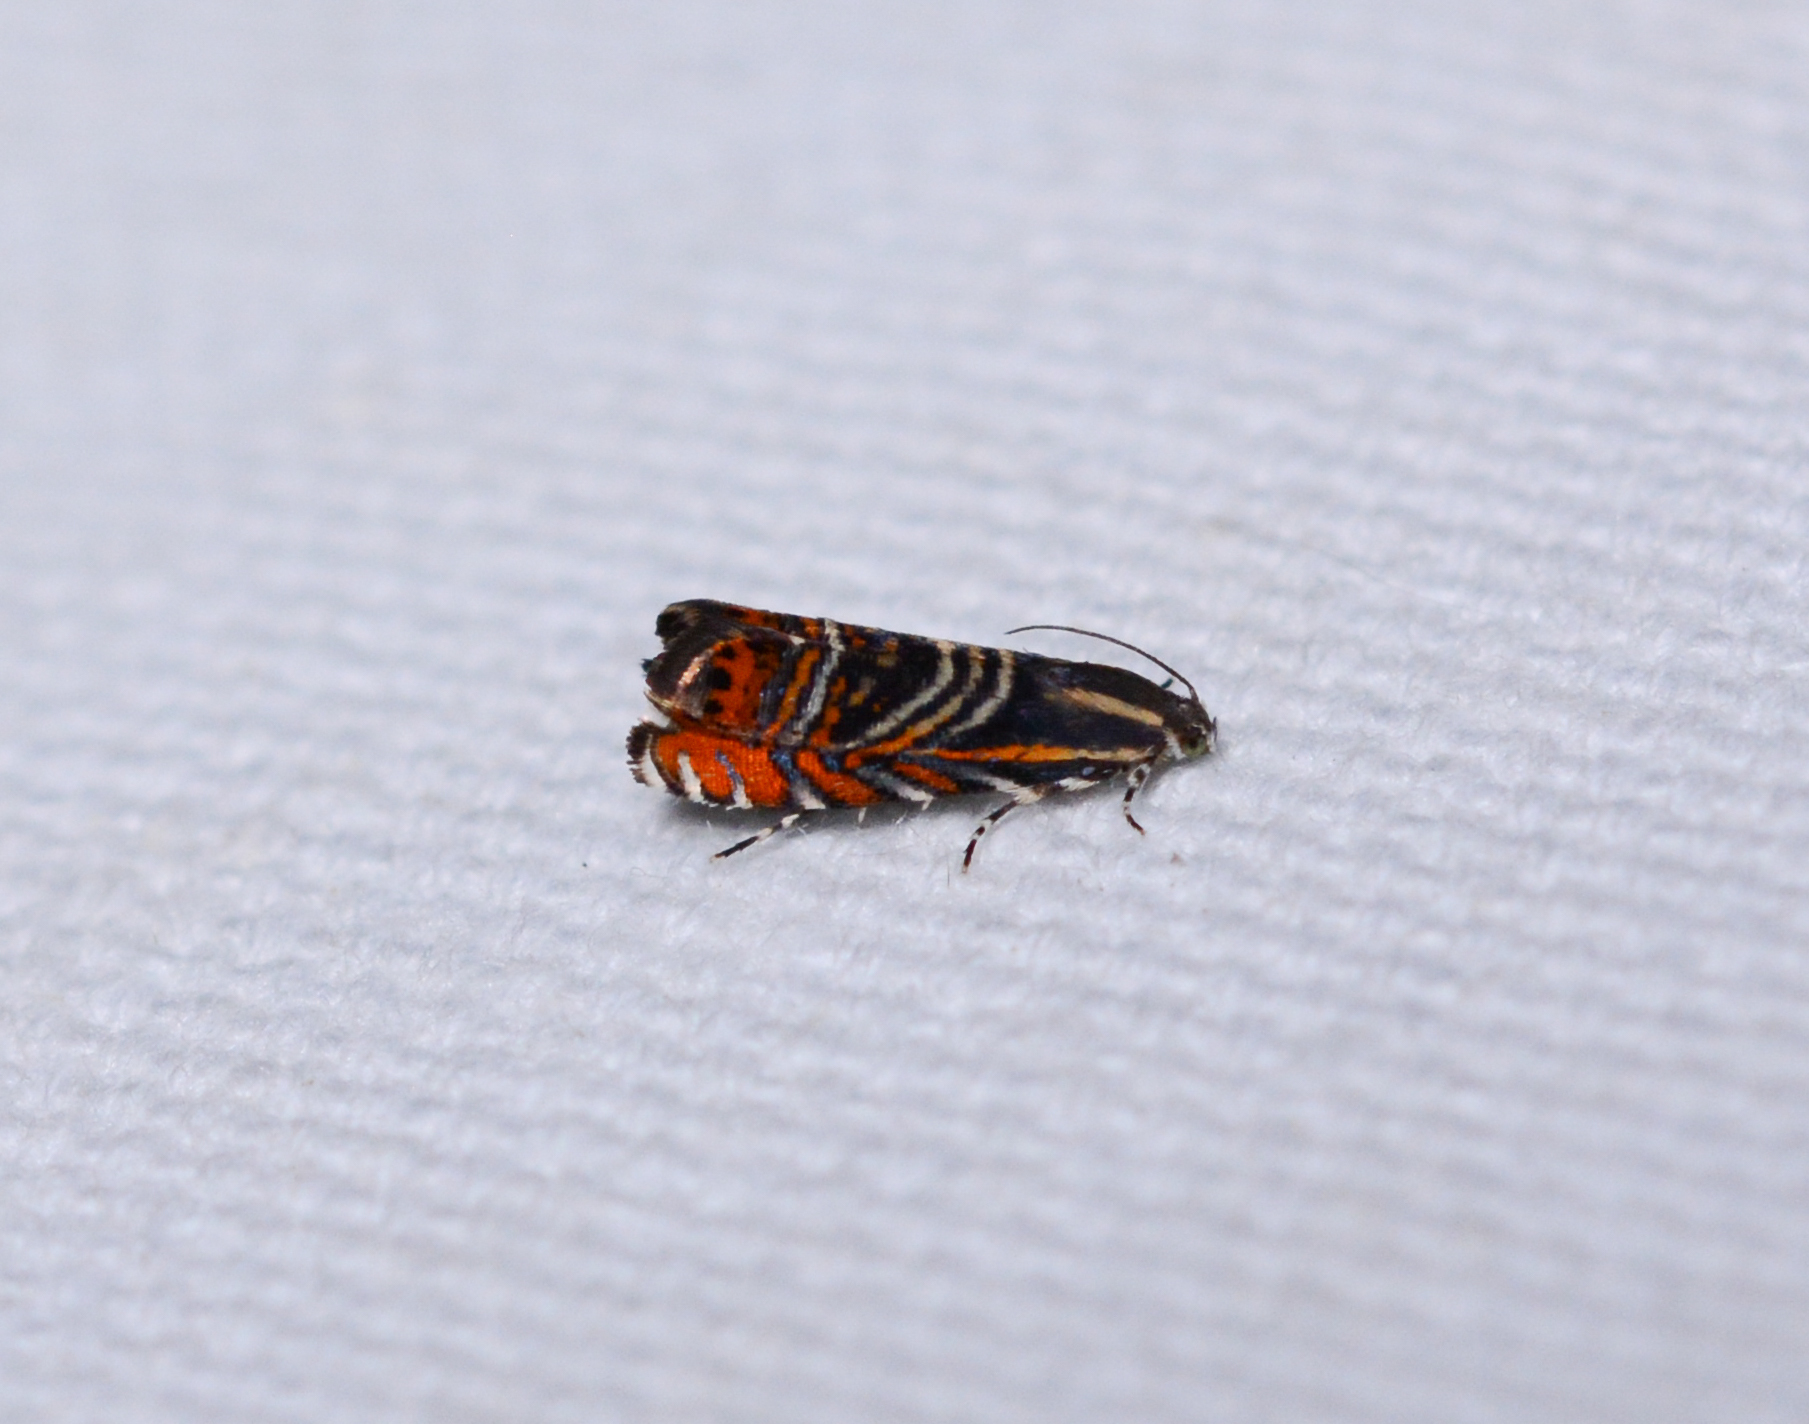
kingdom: Animalia
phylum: Arthropoda
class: Insecta
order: Lepidoptera
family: Tortricidae
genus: Thaumatographa
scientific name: Thaumatographa jonesi
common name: Psychedelic jones moth
